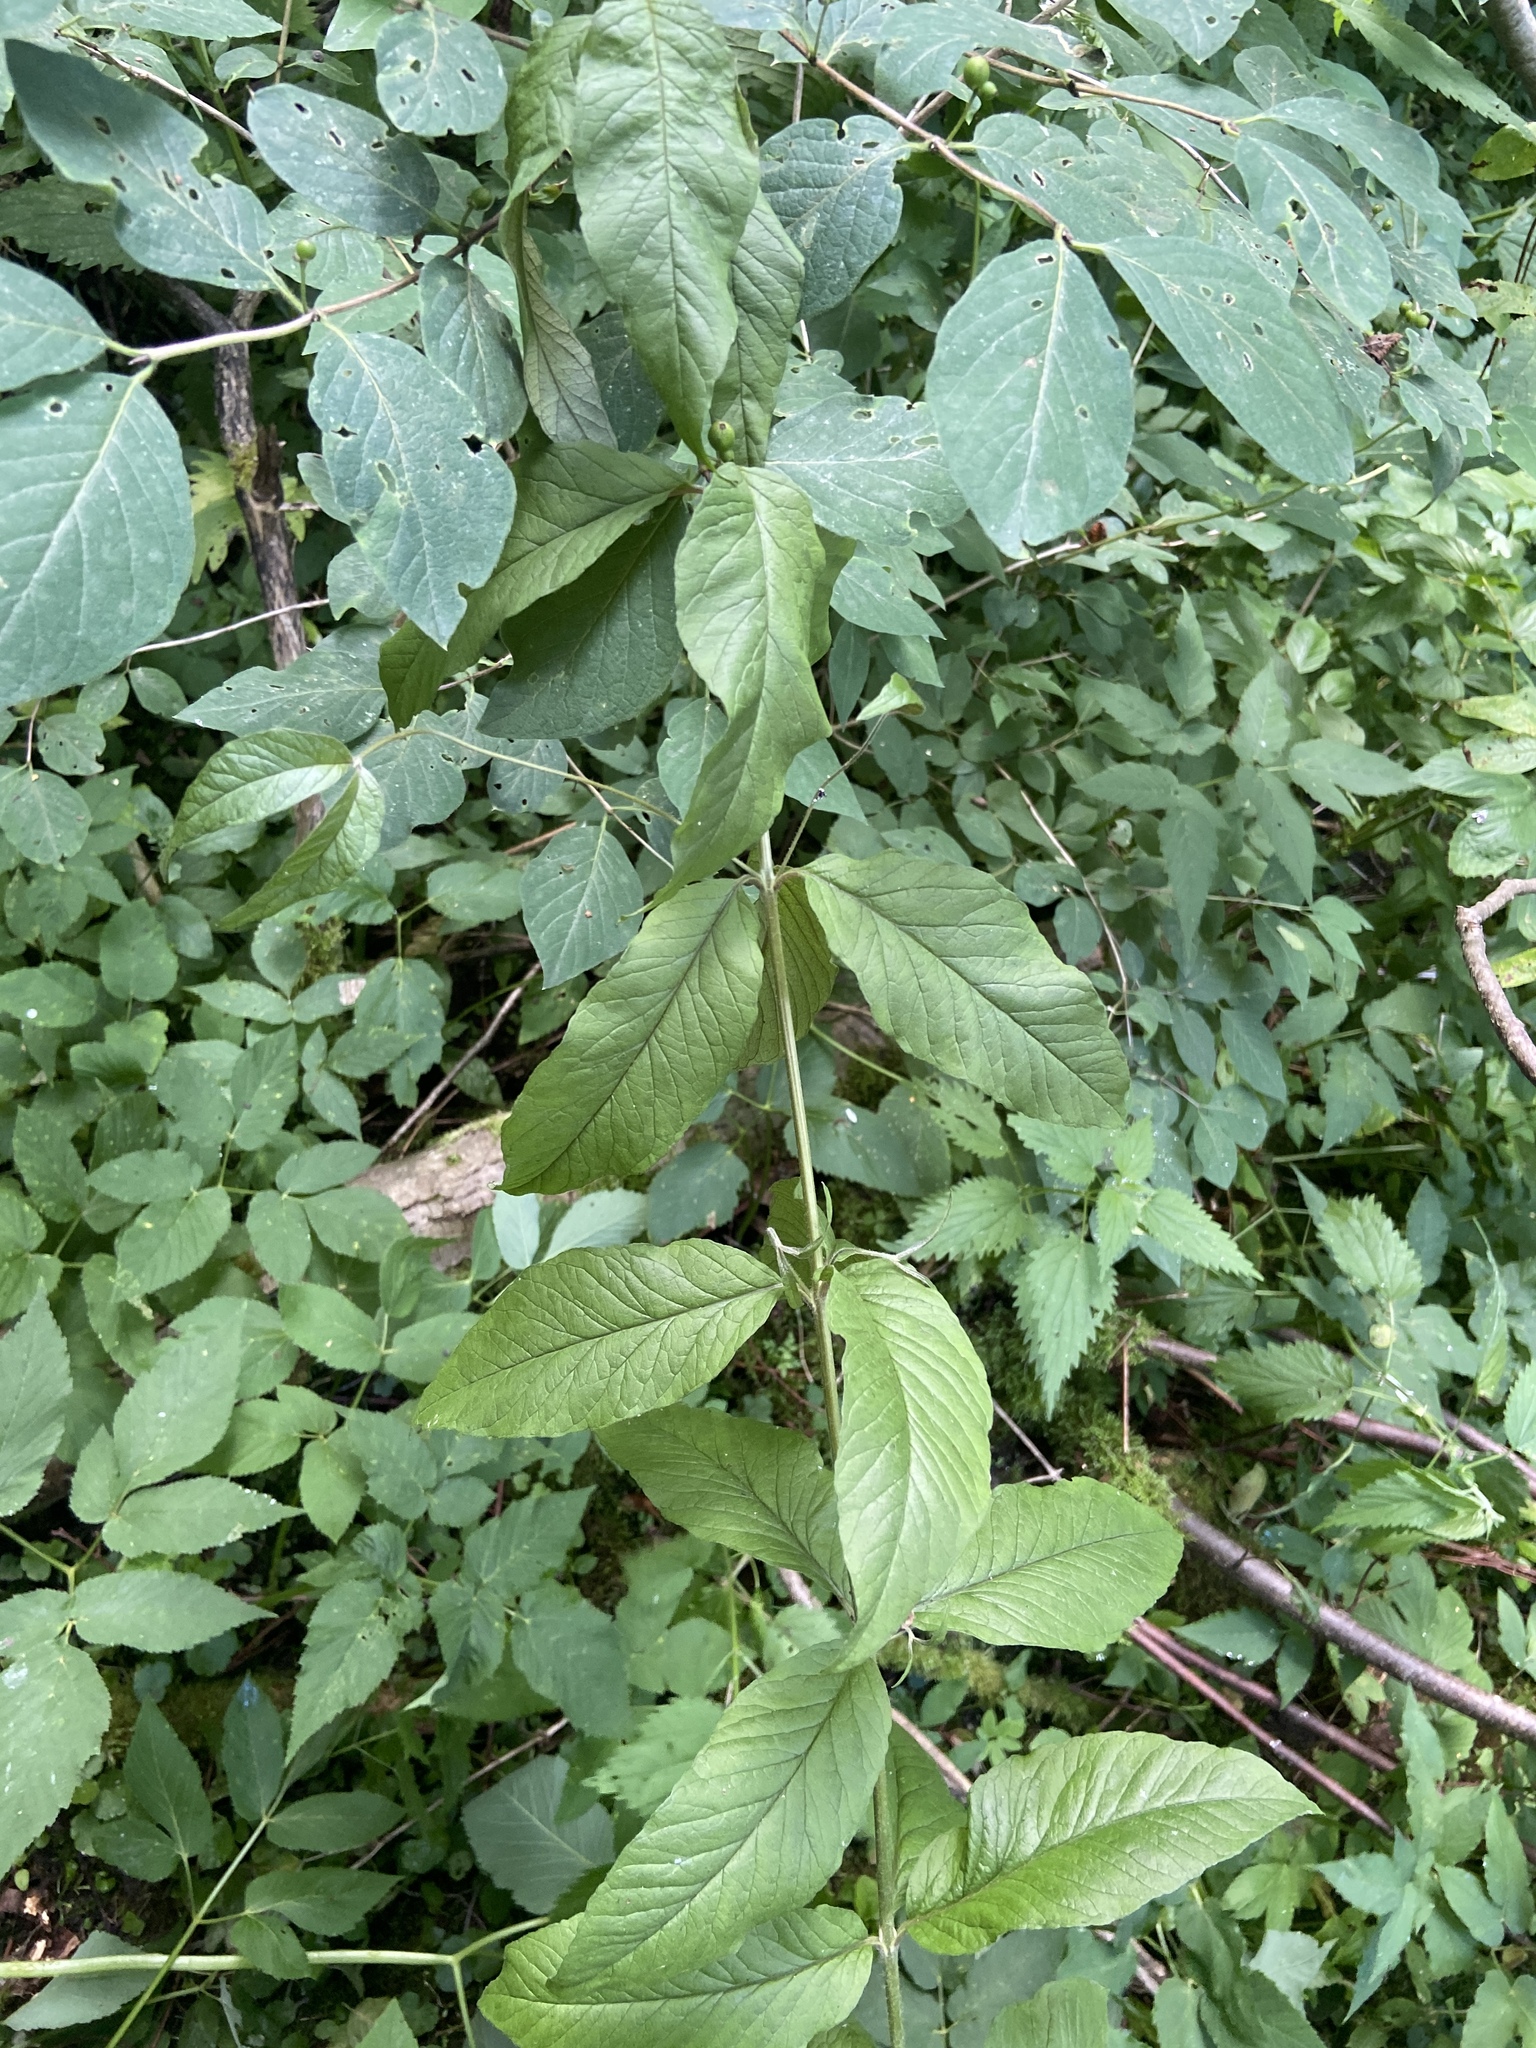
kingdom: Plantae
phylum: Tracheophyta
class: Magnoliopsida
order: Ericales
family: Primulaceae
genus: Lysimachia
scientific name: Lysimachia vulgaris
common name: Yellow loosestrife
